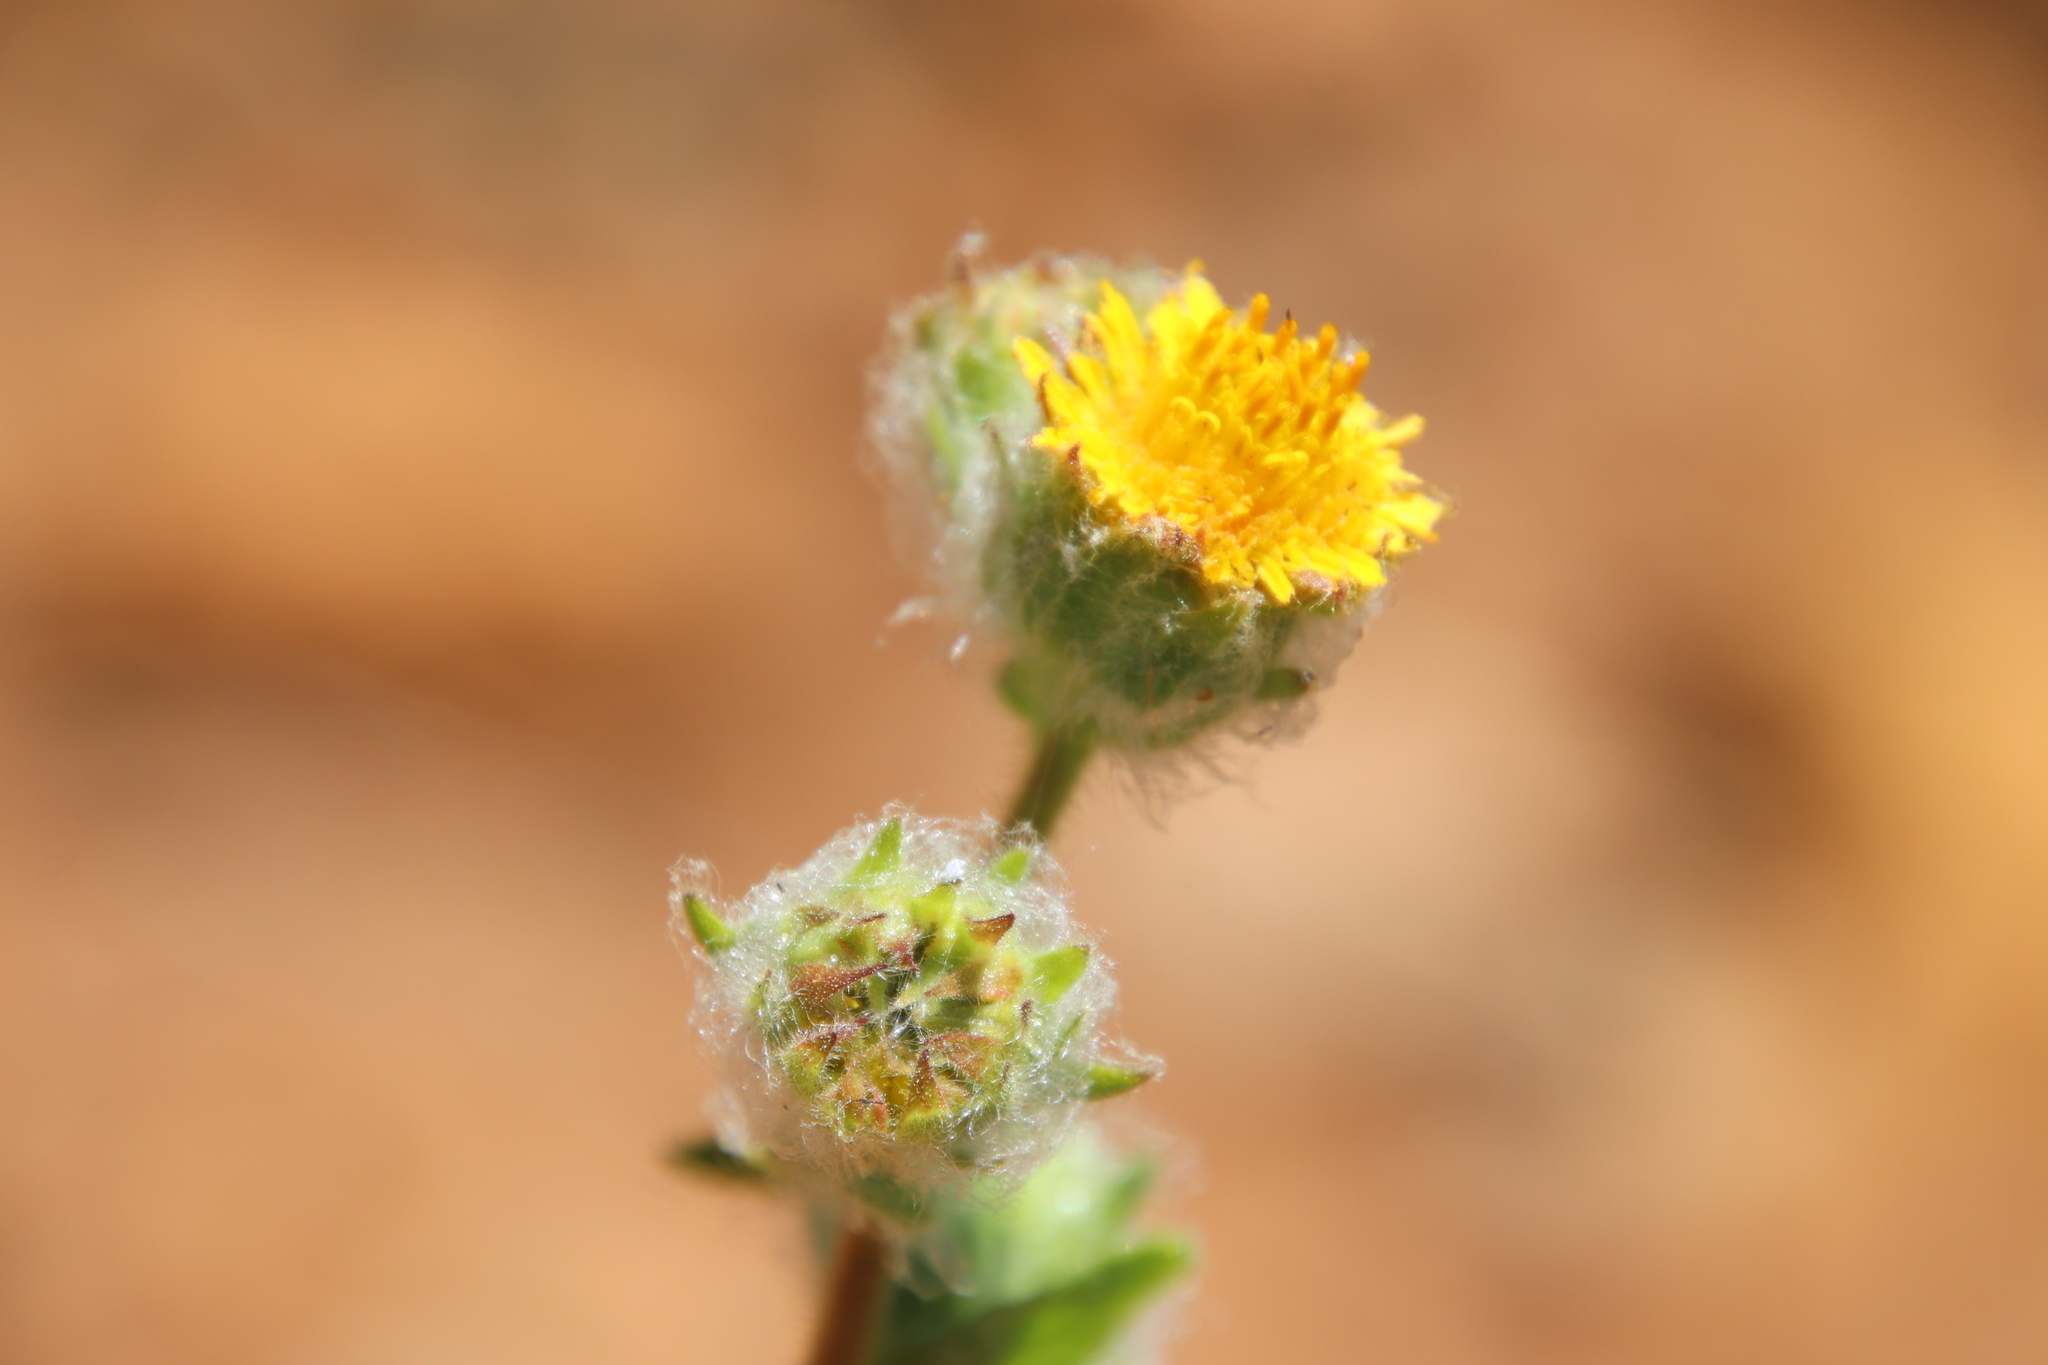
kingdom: Plantae
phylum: Tracheophyta
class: Magnoliopsida
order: Asterales
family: Asteraceae
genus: Hulsea
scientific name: Hulsea californica
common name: San diego alpinegold
